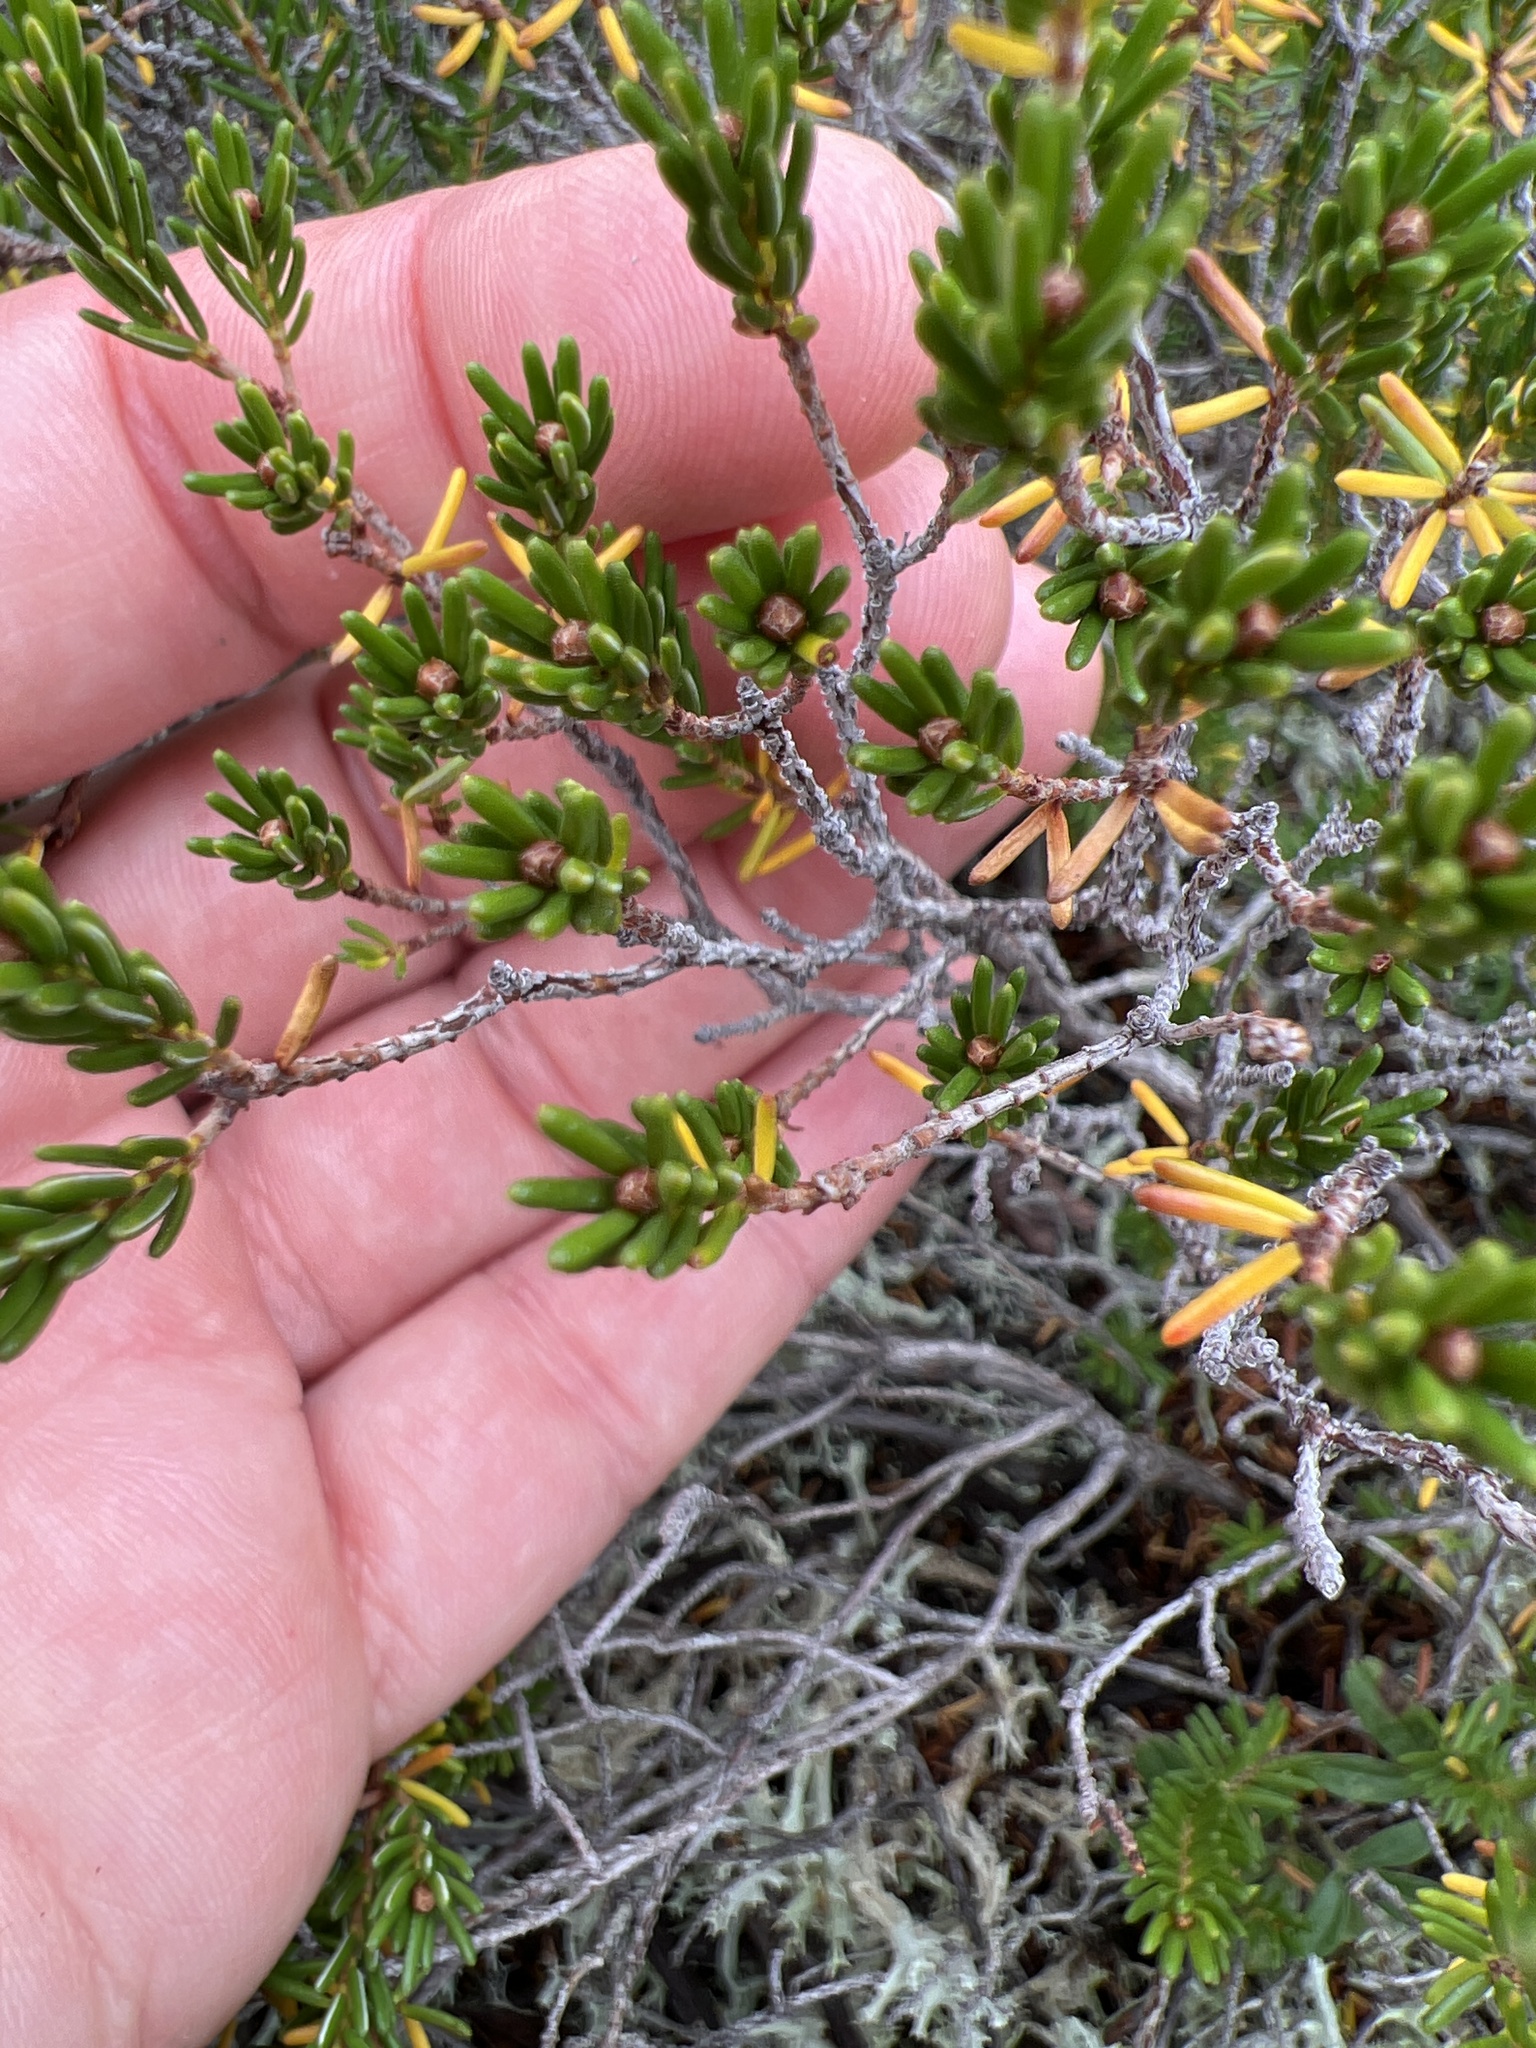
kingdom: Plantae
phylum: Tracheophyta
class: Magnoliopsida
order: Ericales
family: Ericaceae
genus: Corema
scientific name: Corema conradii
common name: Broom-crowberry
